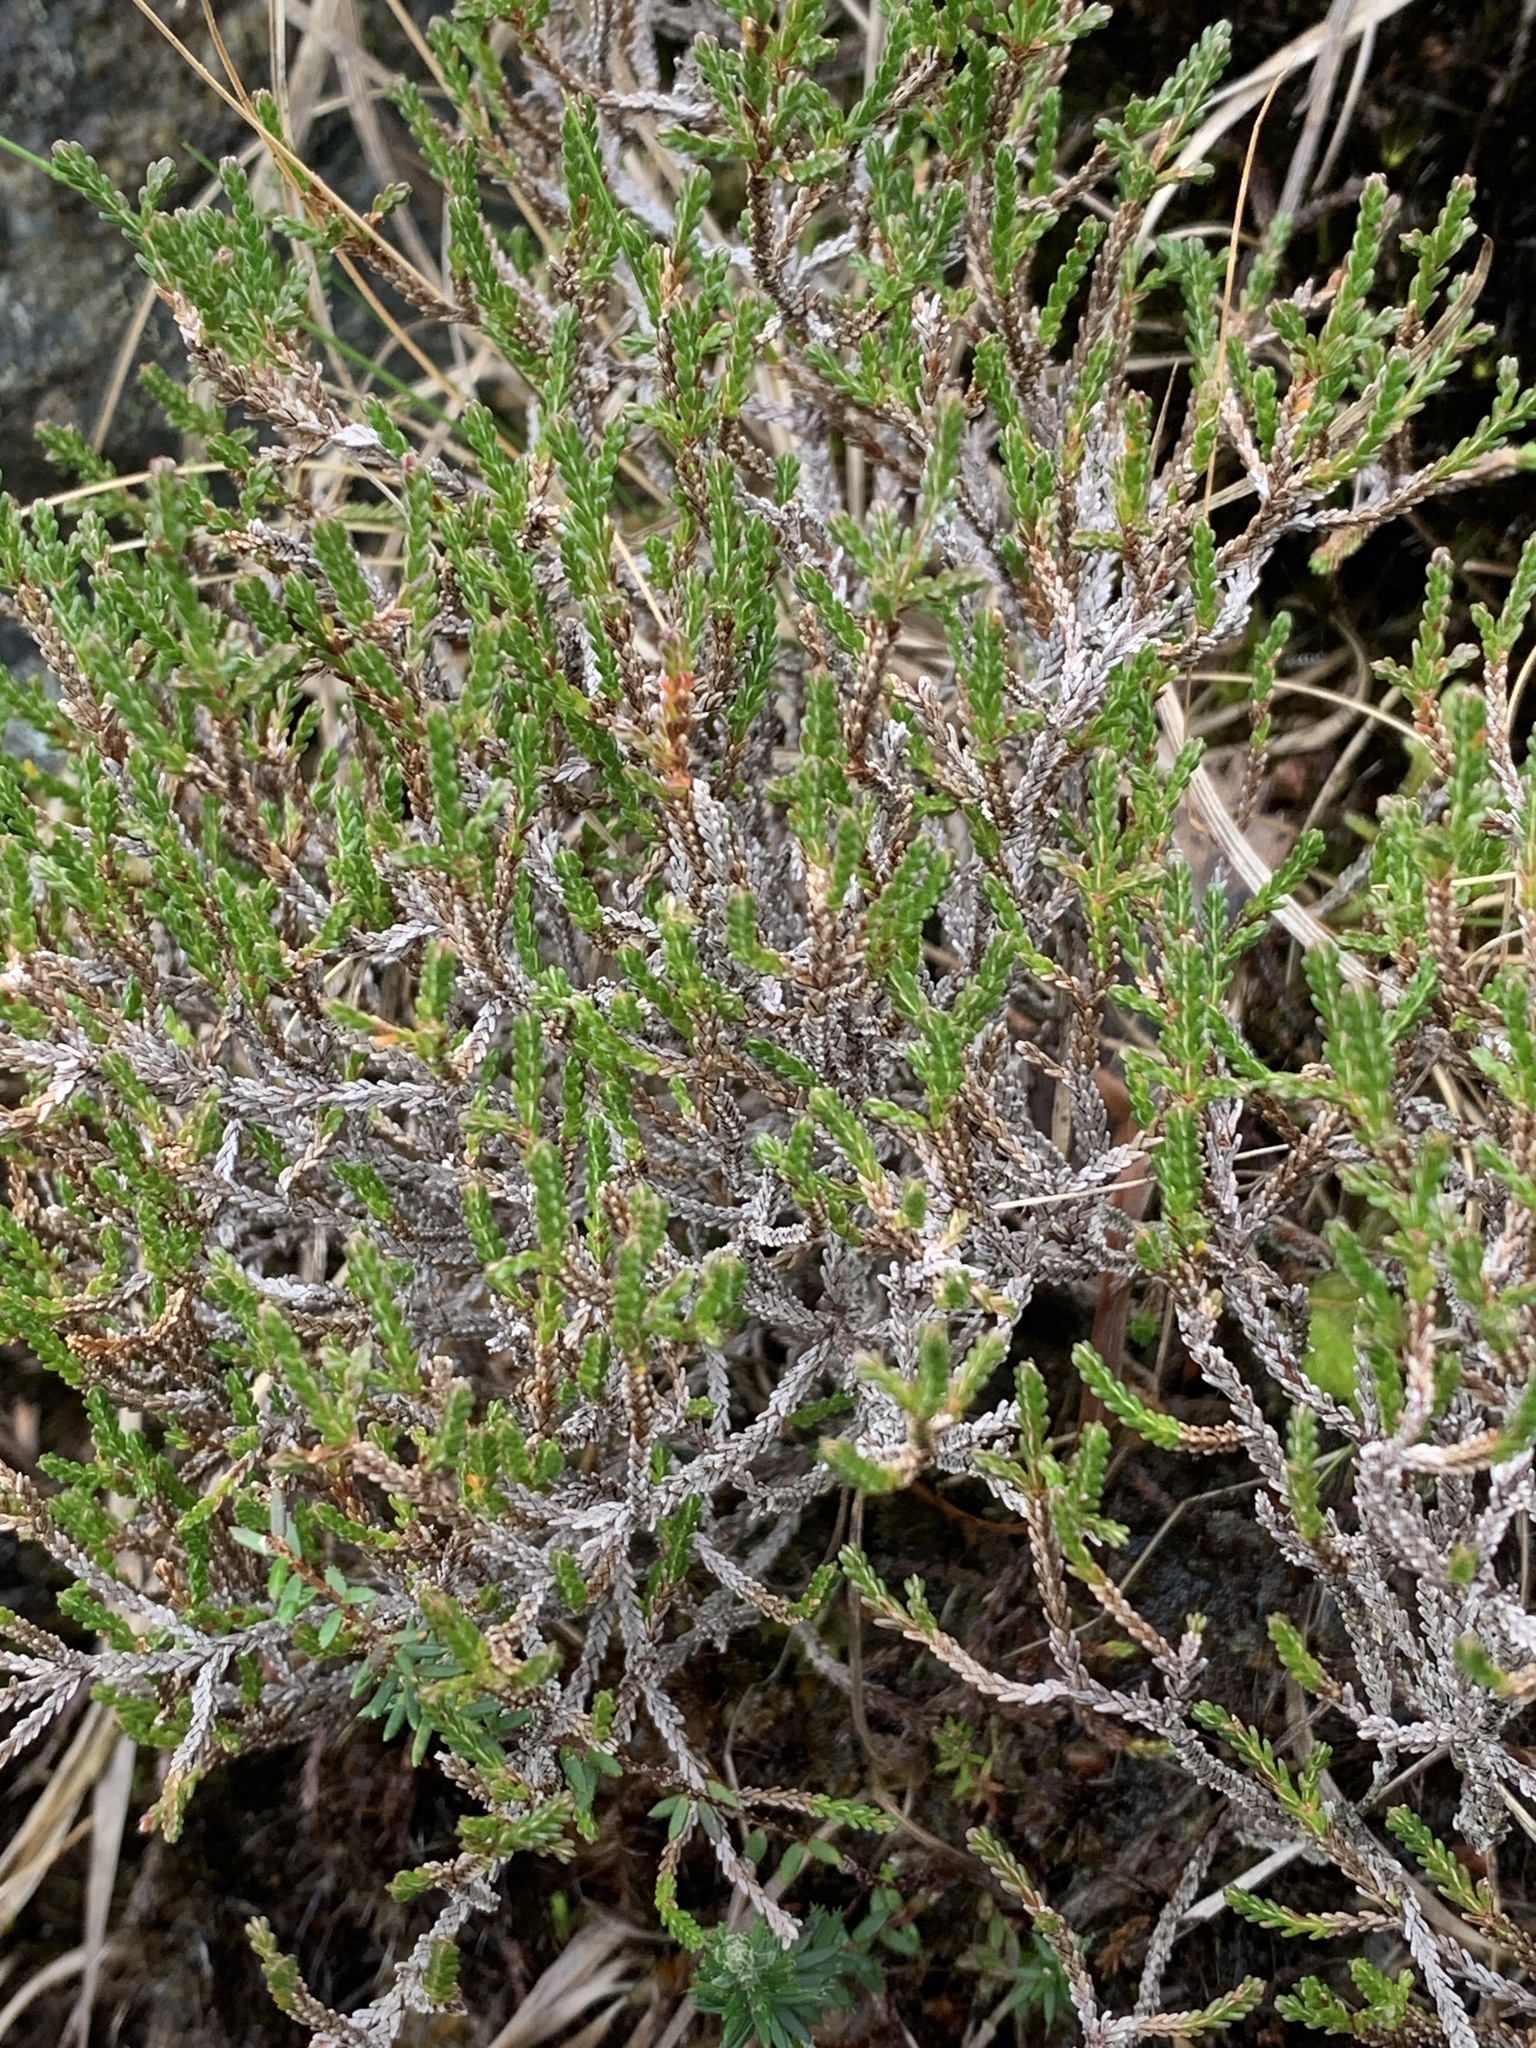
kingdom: Plantae
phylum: Tracheophyta
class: Magnoliopsida
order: Ericales
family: Ericaceae
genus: Calluna
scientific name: Calluna vulgaris
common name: Heather
